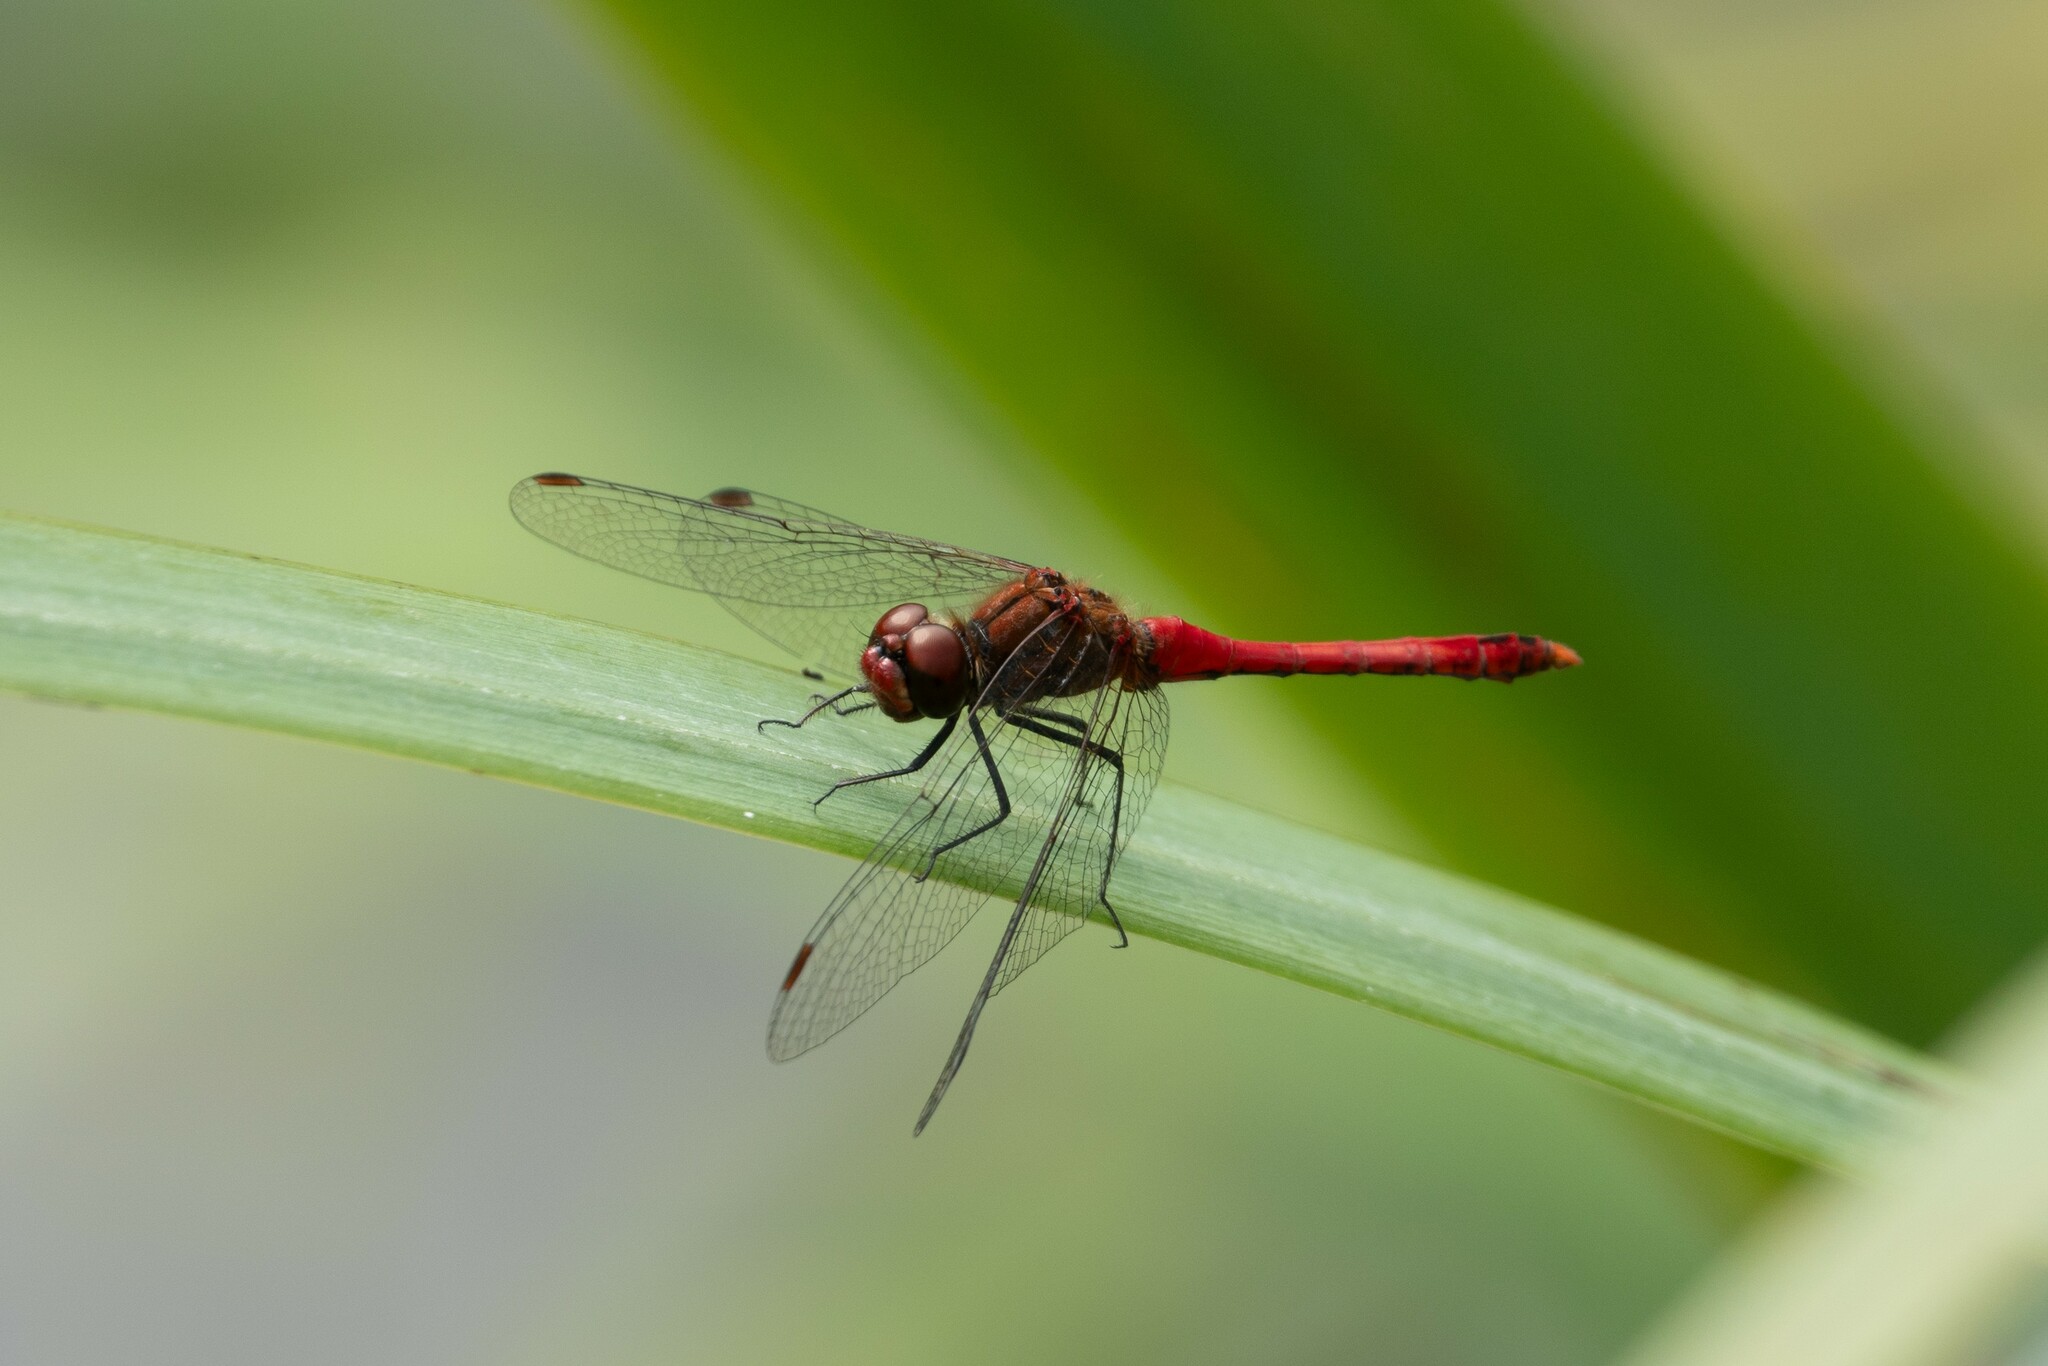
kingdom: Animalia
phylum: Arthropoda
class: Insecta
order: Odonata
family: Libellulidae
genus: Sympetrum
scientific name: Sympetrum sanguineum
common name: Ruddy darter
